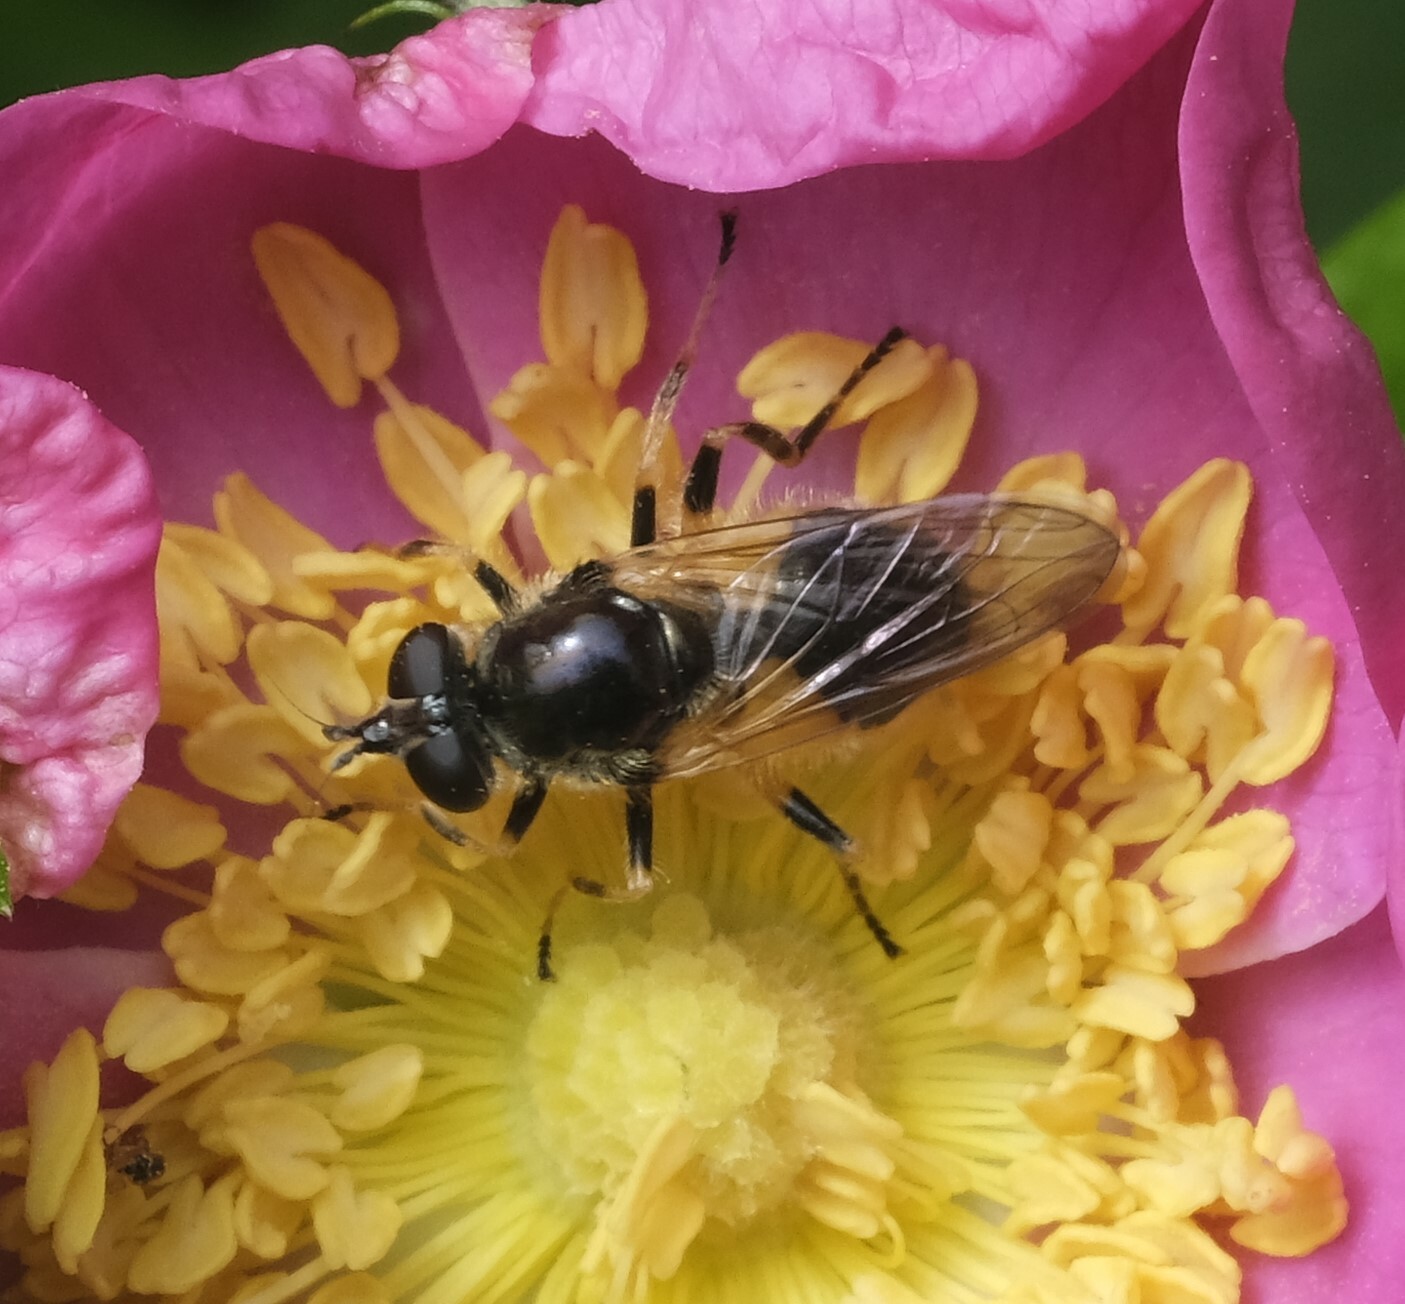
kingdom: Animalia
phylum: Arthropoda
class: Insecta
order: Diptera
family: Syrphidae
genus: Blera
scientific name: Blera badia
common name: Common wood fly
